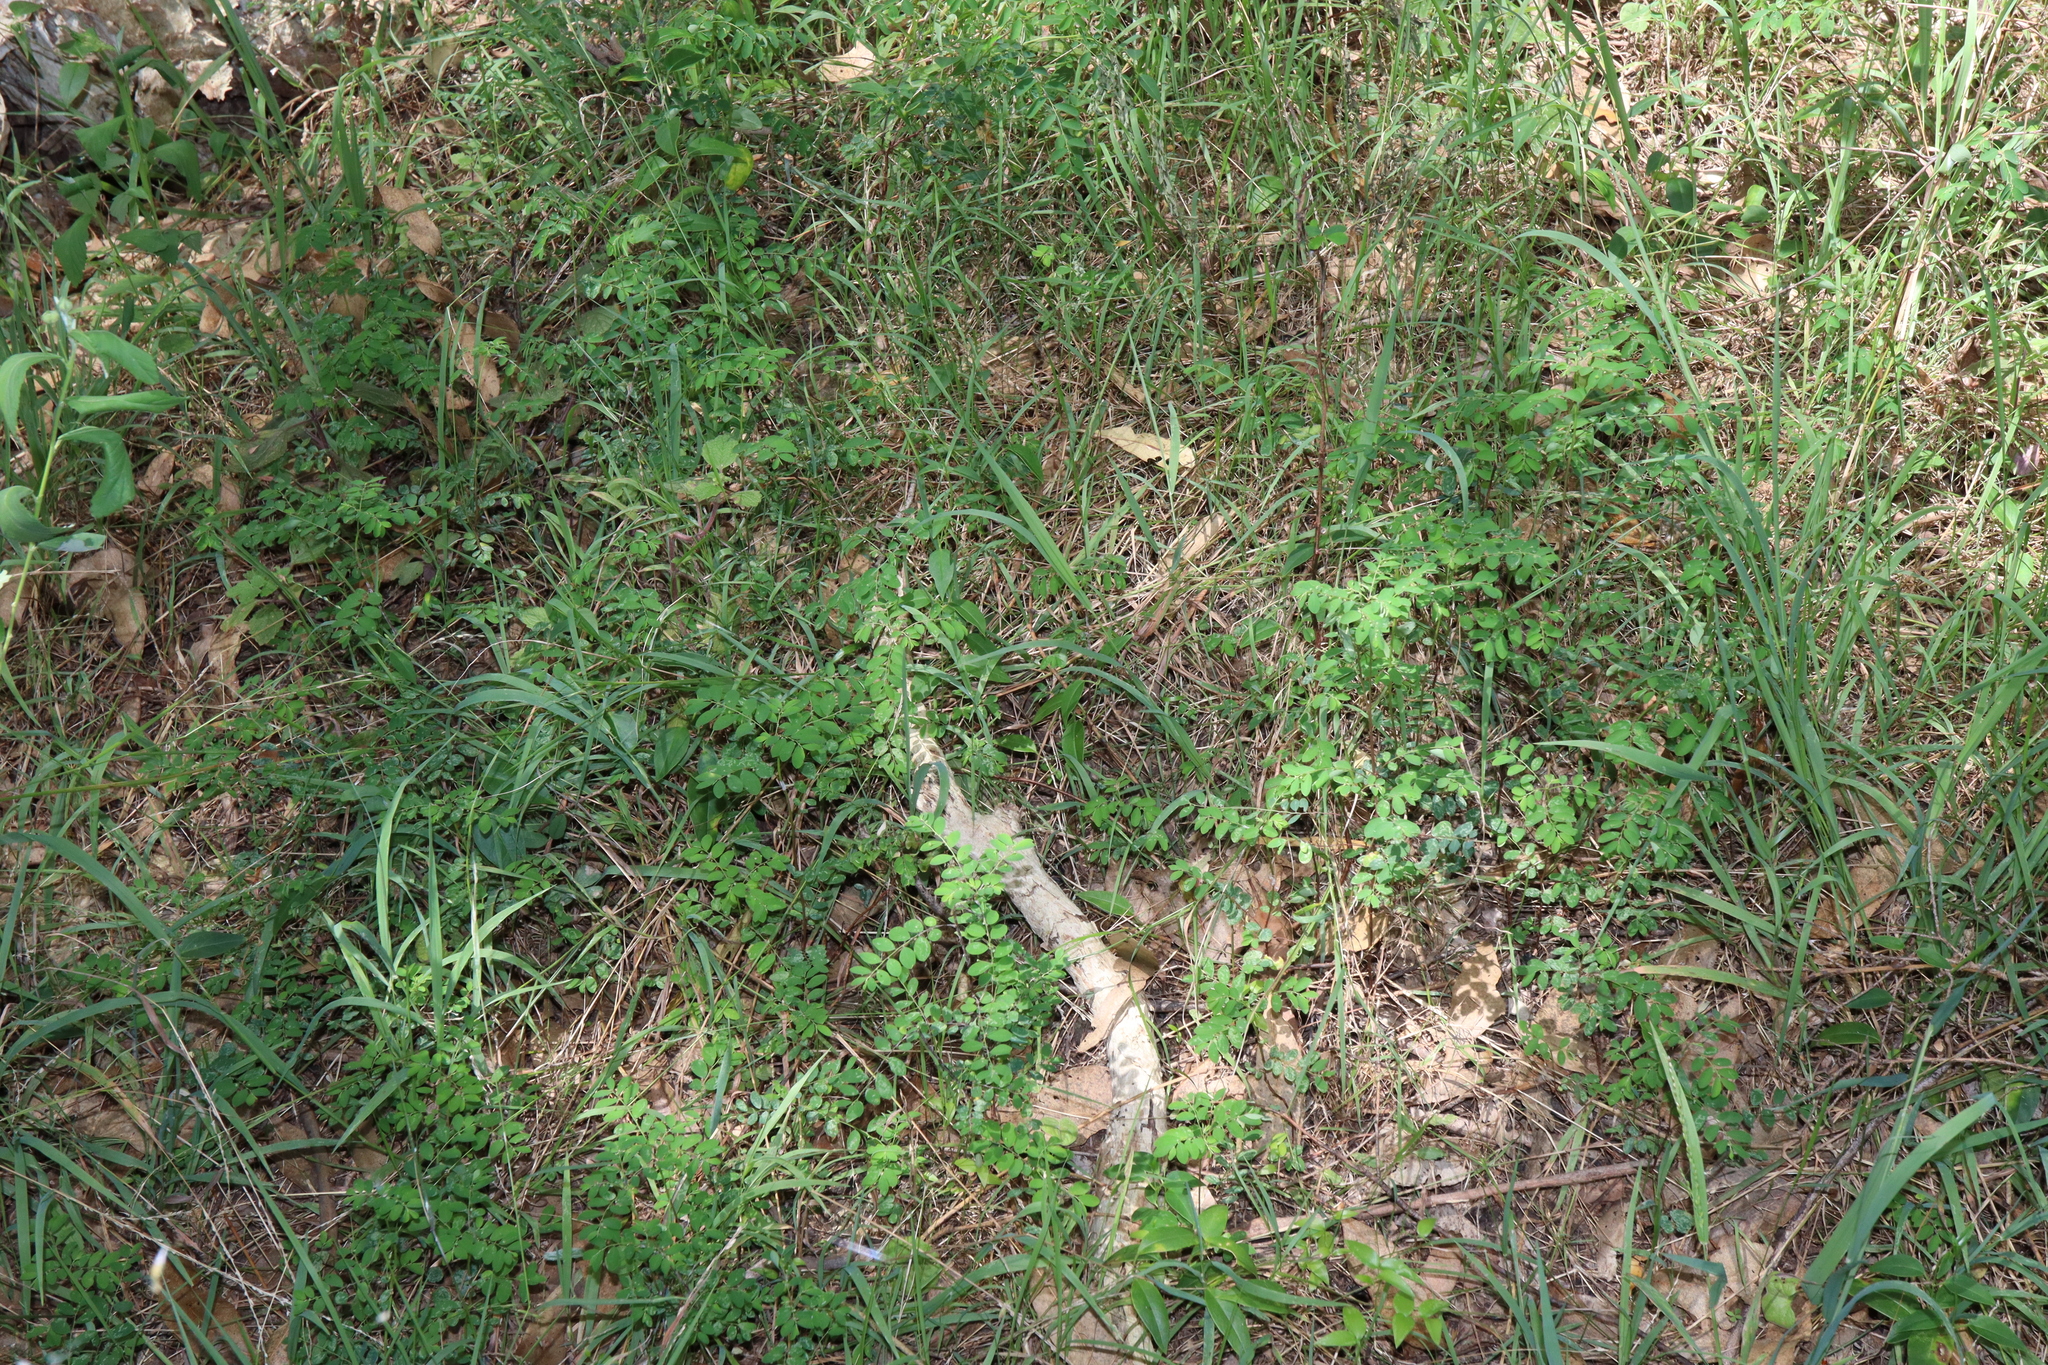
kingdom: Plantae
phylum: Tracheophyta
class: Magnoliopsida
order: Malpighiales
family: Phyllanthaceae
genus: Phyllanthus
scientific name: Phyllanthus tenellus
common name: Mascarene island leaf-flower
